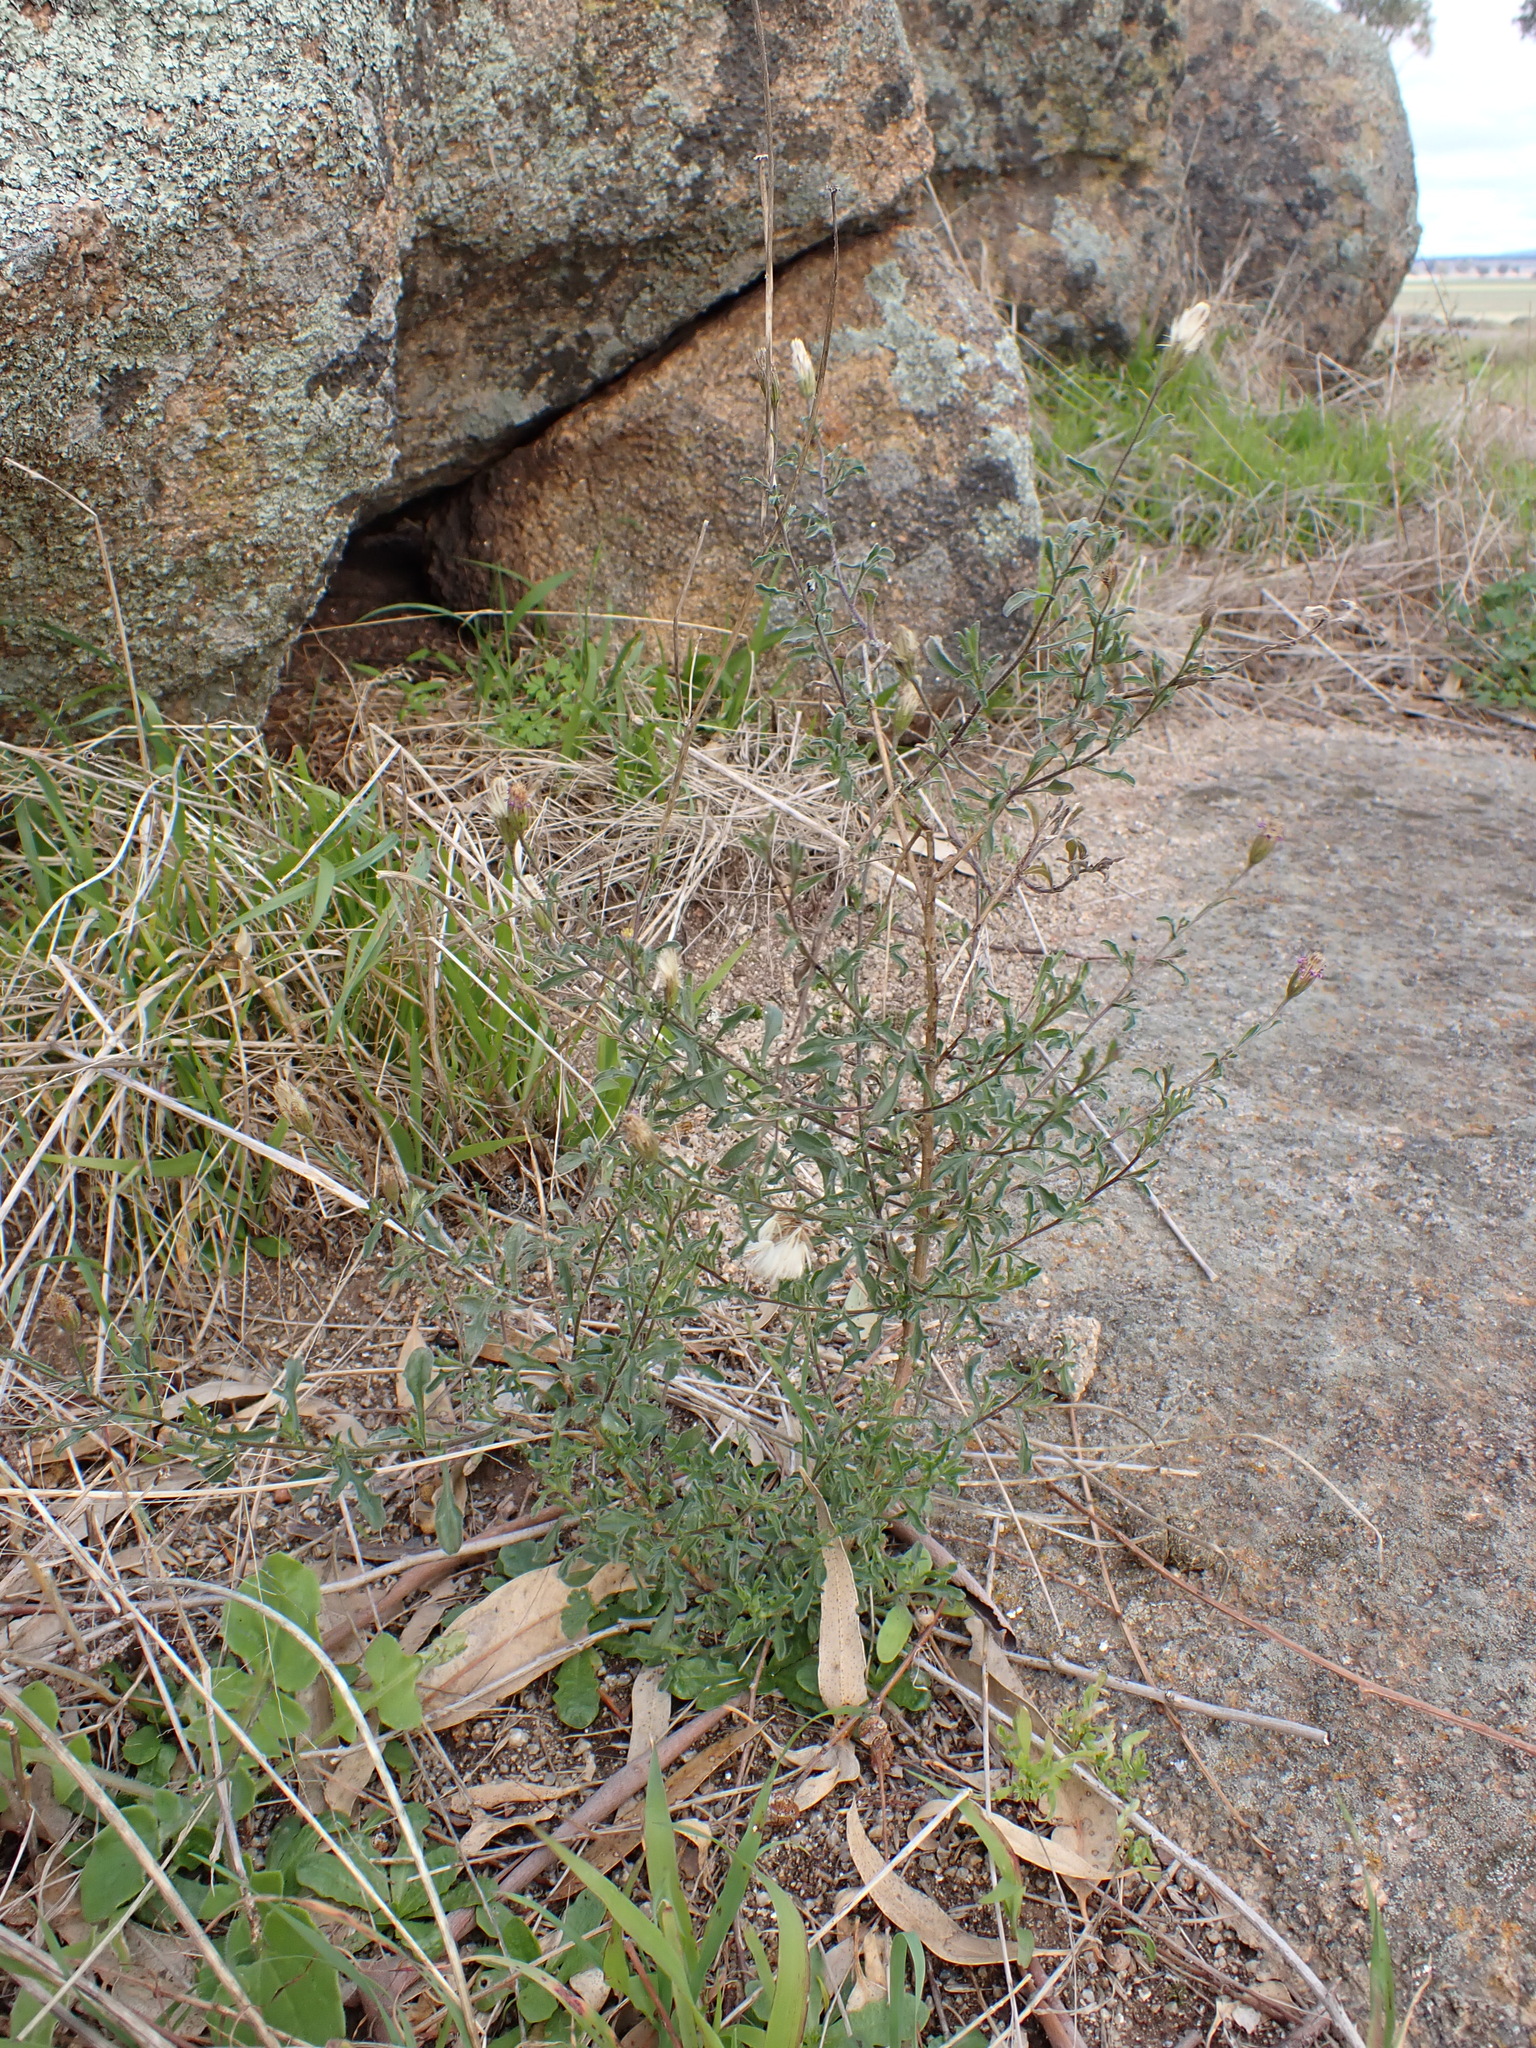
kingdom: Plantae
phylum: Tracheophyta
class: Magnoliopsida
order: Asterales
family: Asteraceae
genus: Vittadinia
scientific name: Vittadinia cuneata
